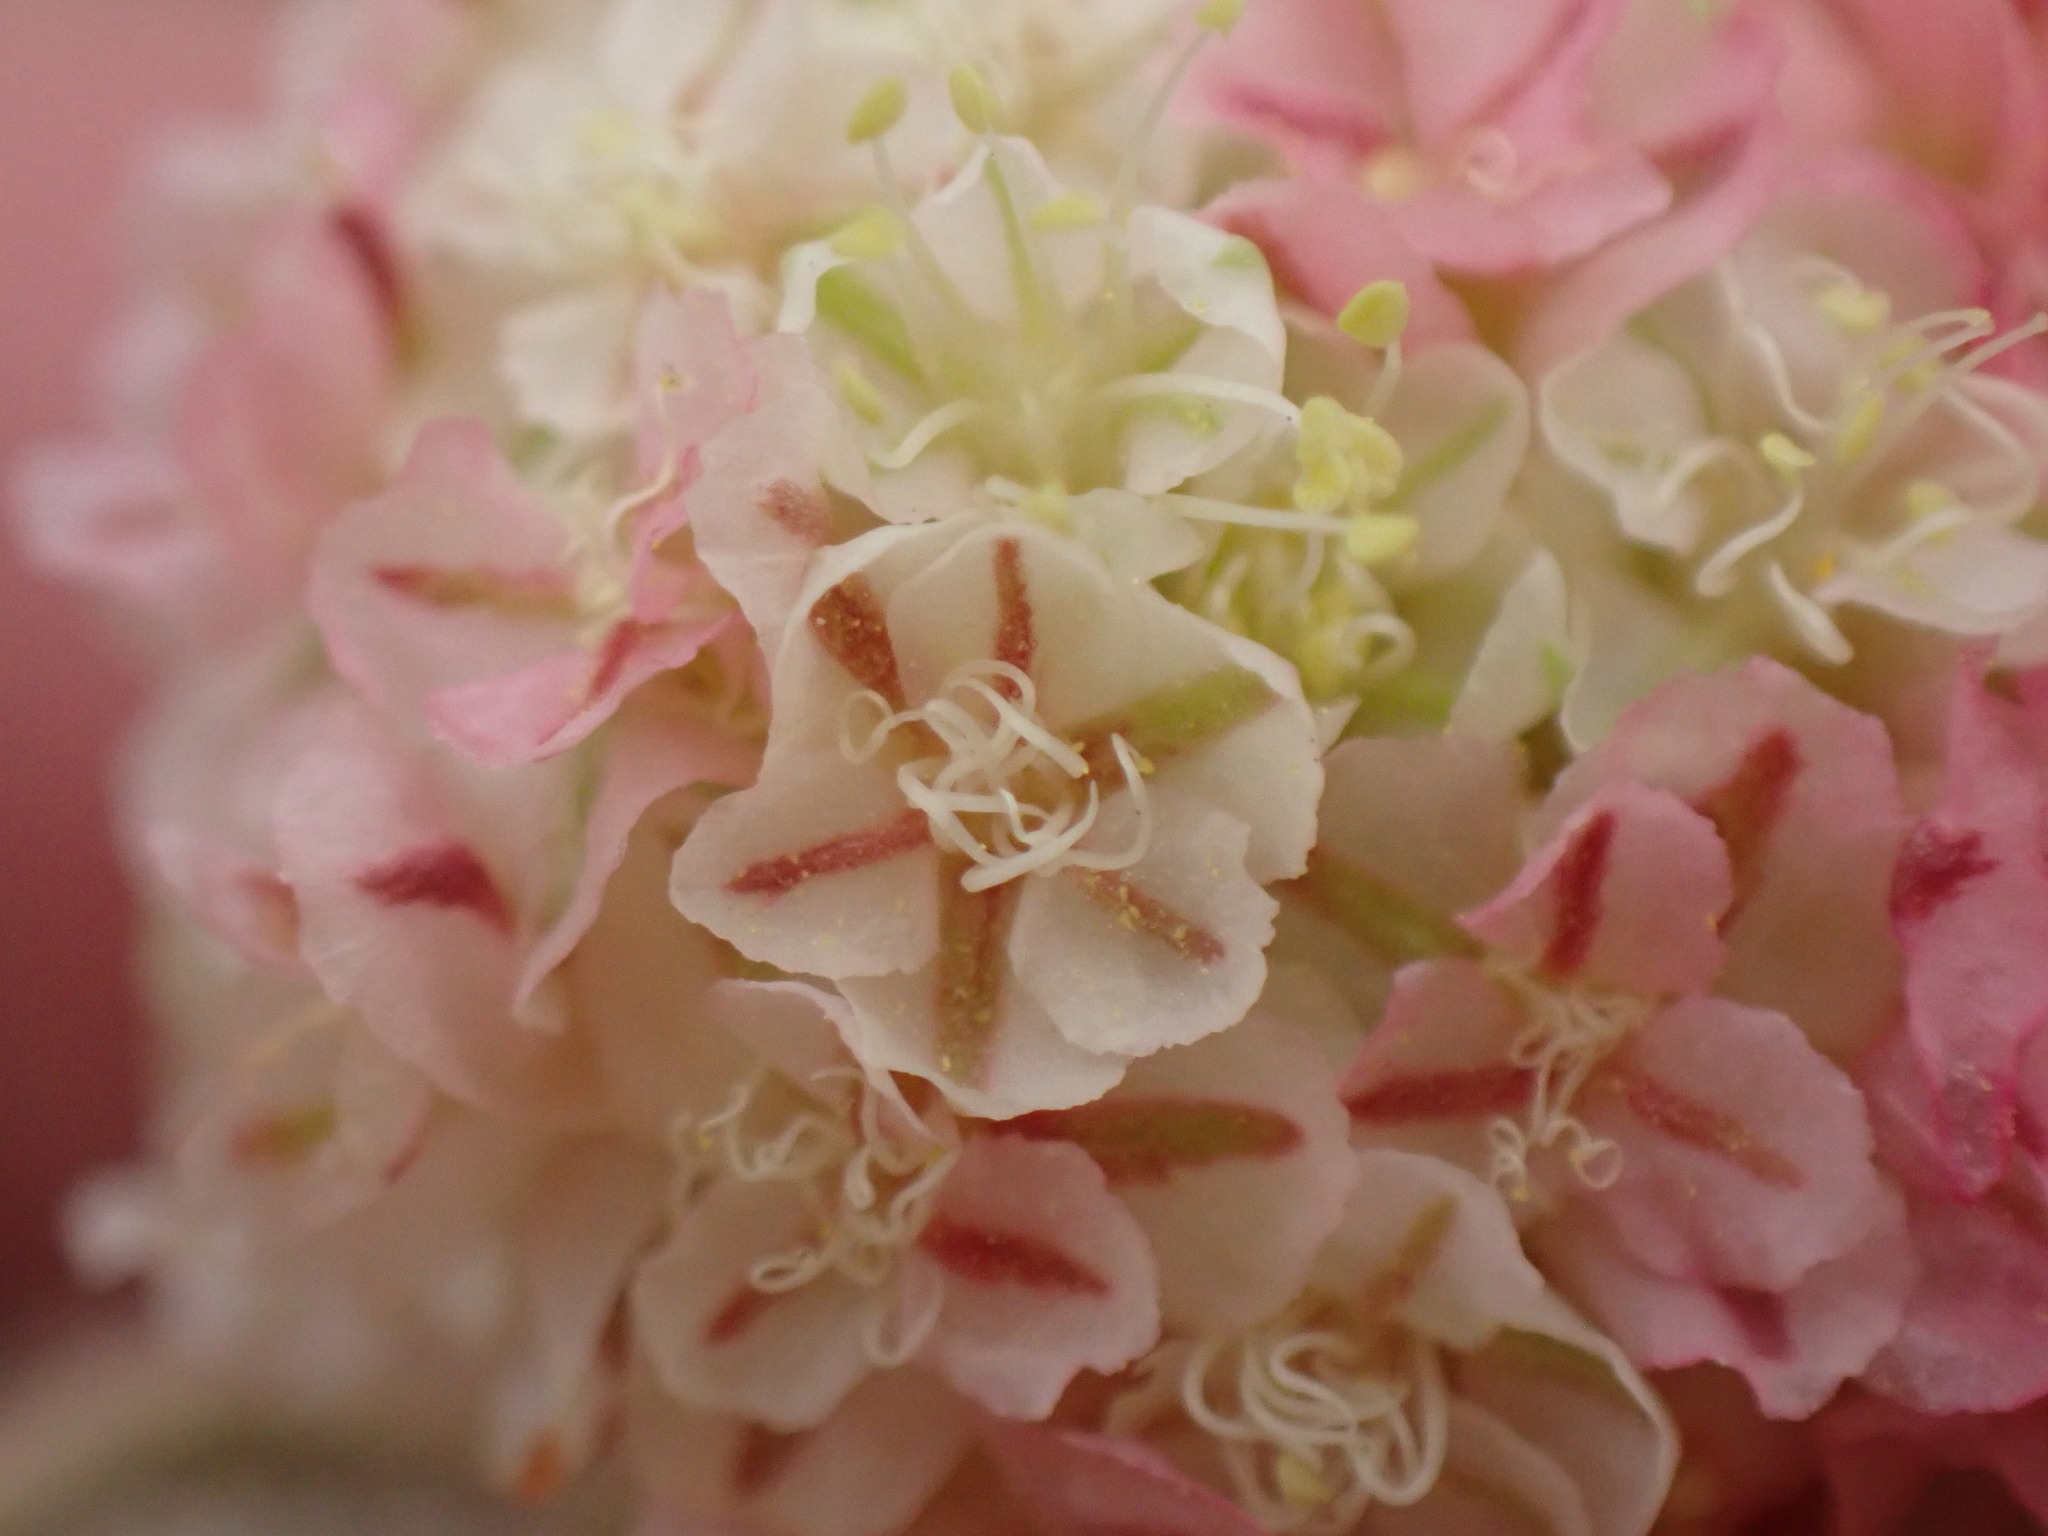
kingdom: Plantae
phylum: Tracheophyta
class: Magnoliopsida
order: Caryophyllales
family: Polygonaceae
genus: Eriogonum
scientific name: Eriogonum lobbii
